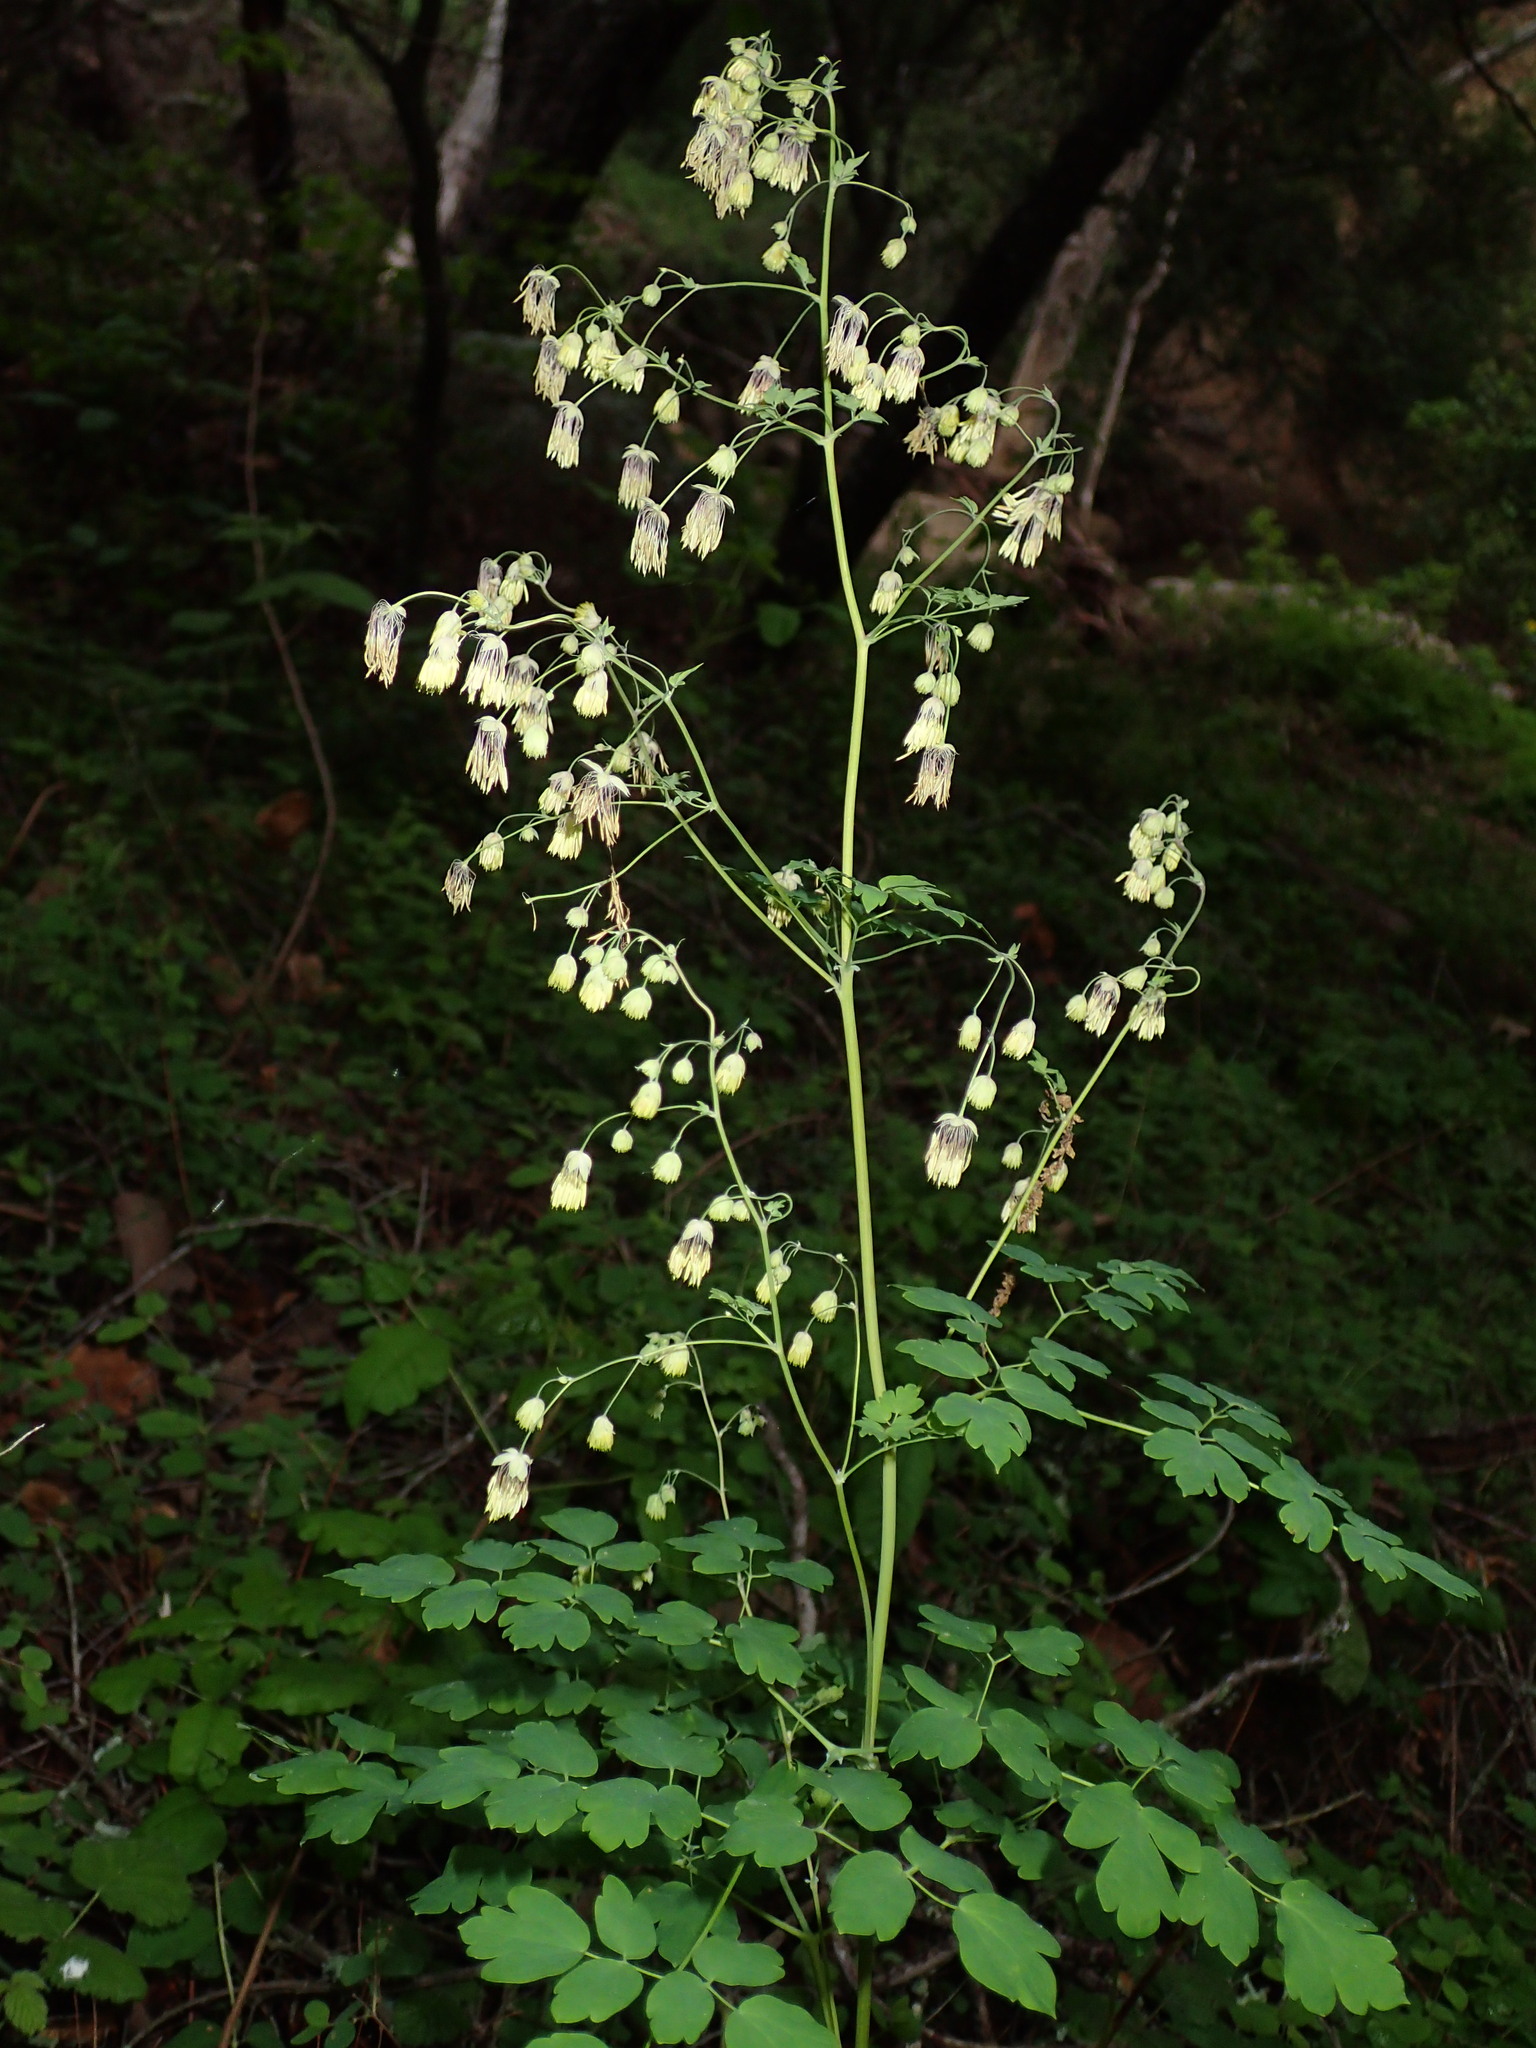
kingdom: Plantae
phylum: Tracheophyta
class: Magnoliopsida
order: Ranunculales
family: Ranunculaceae
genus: Thalictrum
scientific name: Thalictrum fendleri
